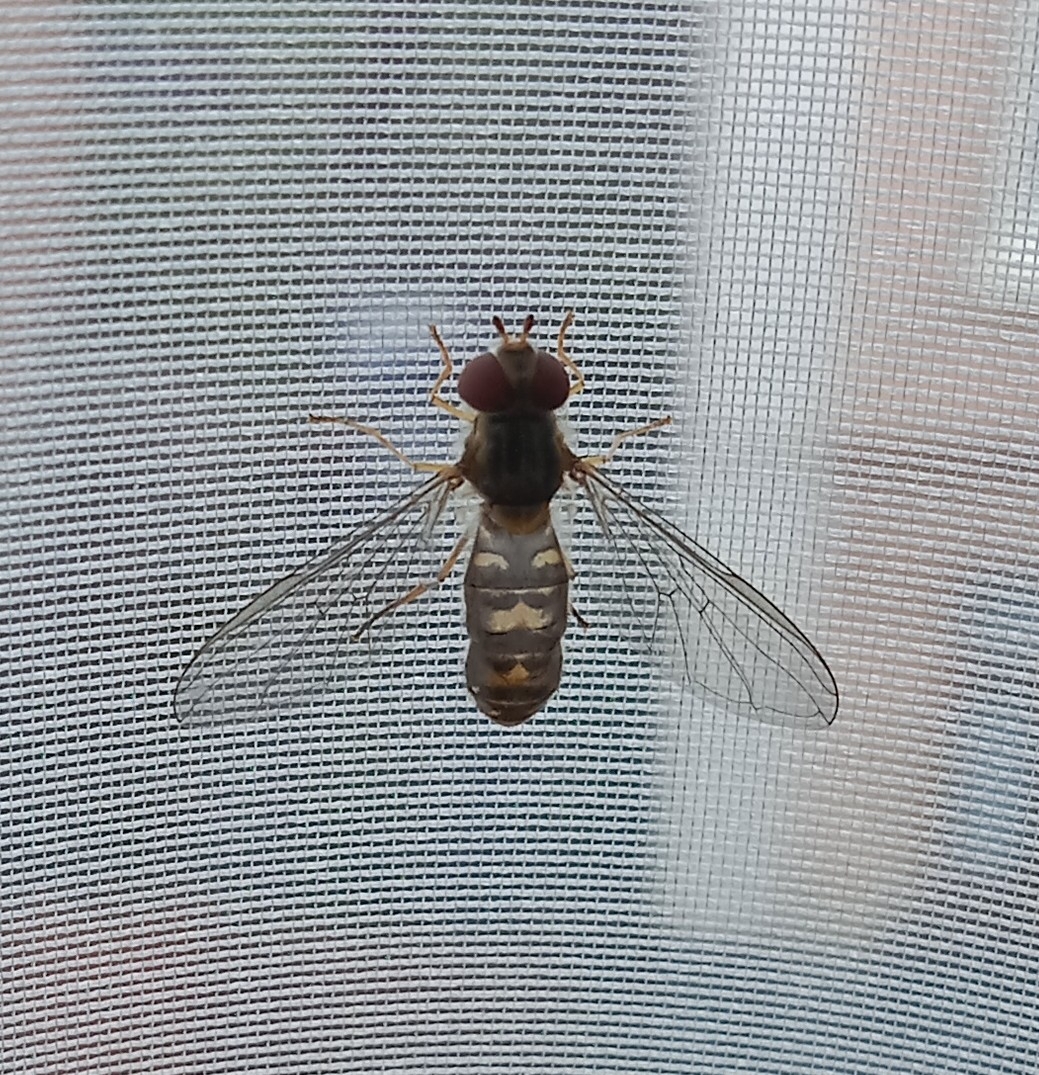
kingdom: Animalia
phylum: Arthropoda
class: Insecta
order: Diptera
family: Syrphidae
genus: Episyrphus
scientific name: Episyrphus balteatus
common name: Marmalade hoverfly
